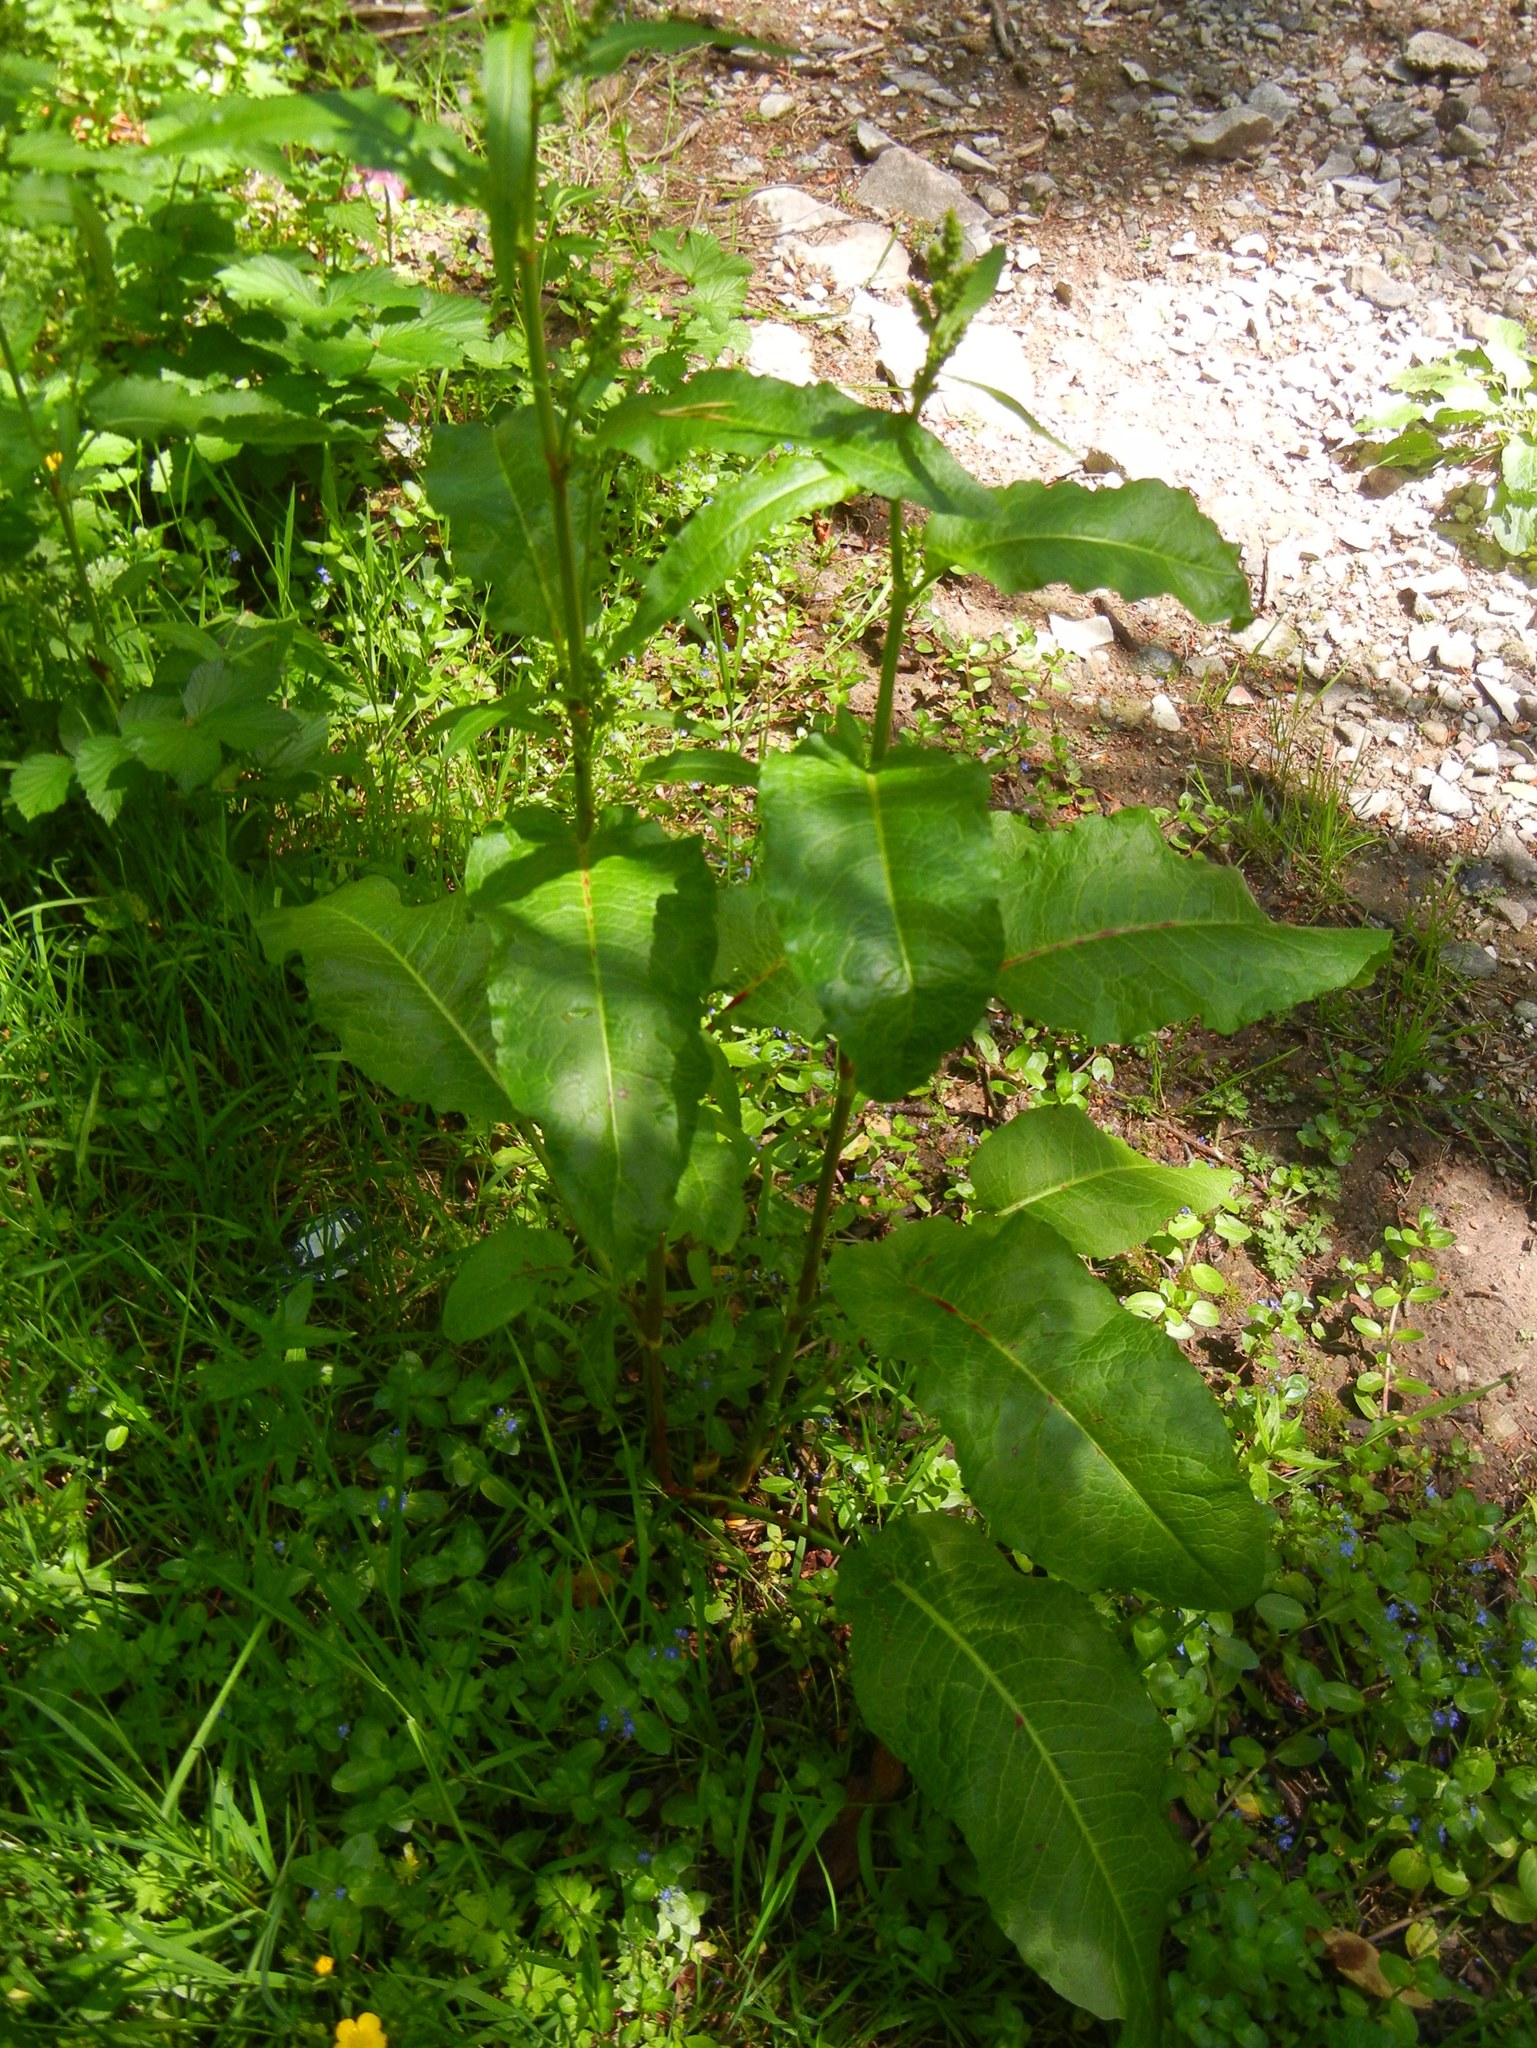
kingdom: Plantae
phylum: Tracheophyta
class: Magnoliopsida
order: Caryophyllales
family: Polygonaceae
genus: Rumex
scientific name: Rumex obtusifolius
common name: Bitter dock
